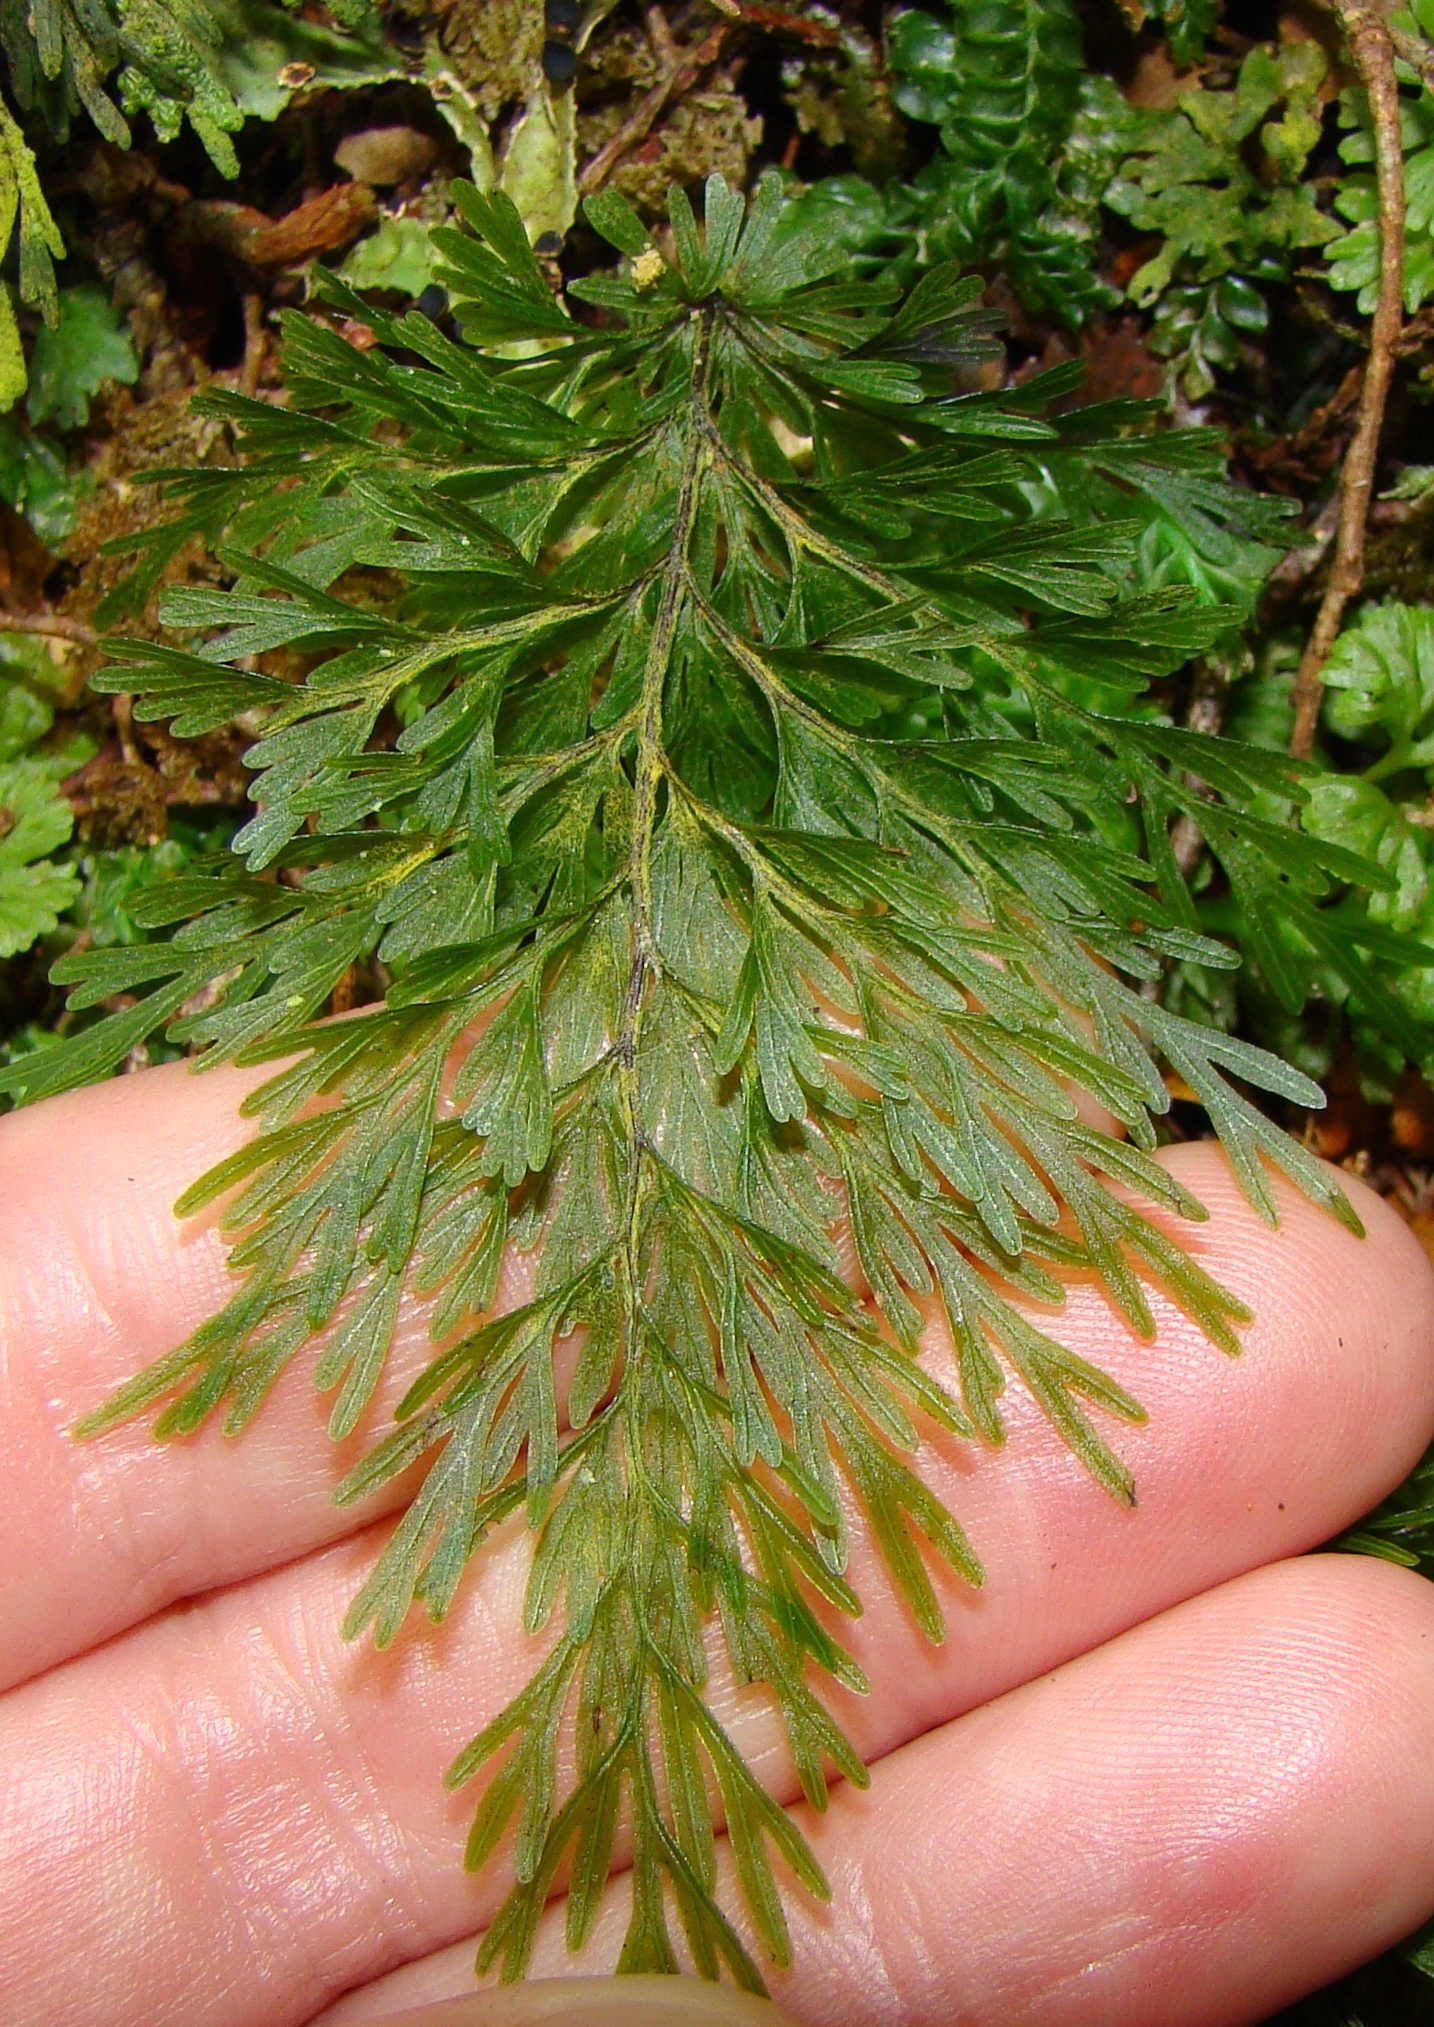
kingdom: Plantae
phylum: Tracheophyta
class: Polypodiopsida
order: Hymenophyllales
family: Hymenophyllaceae
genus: Hymenophyllum
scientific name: Hymenophyllum demissum
